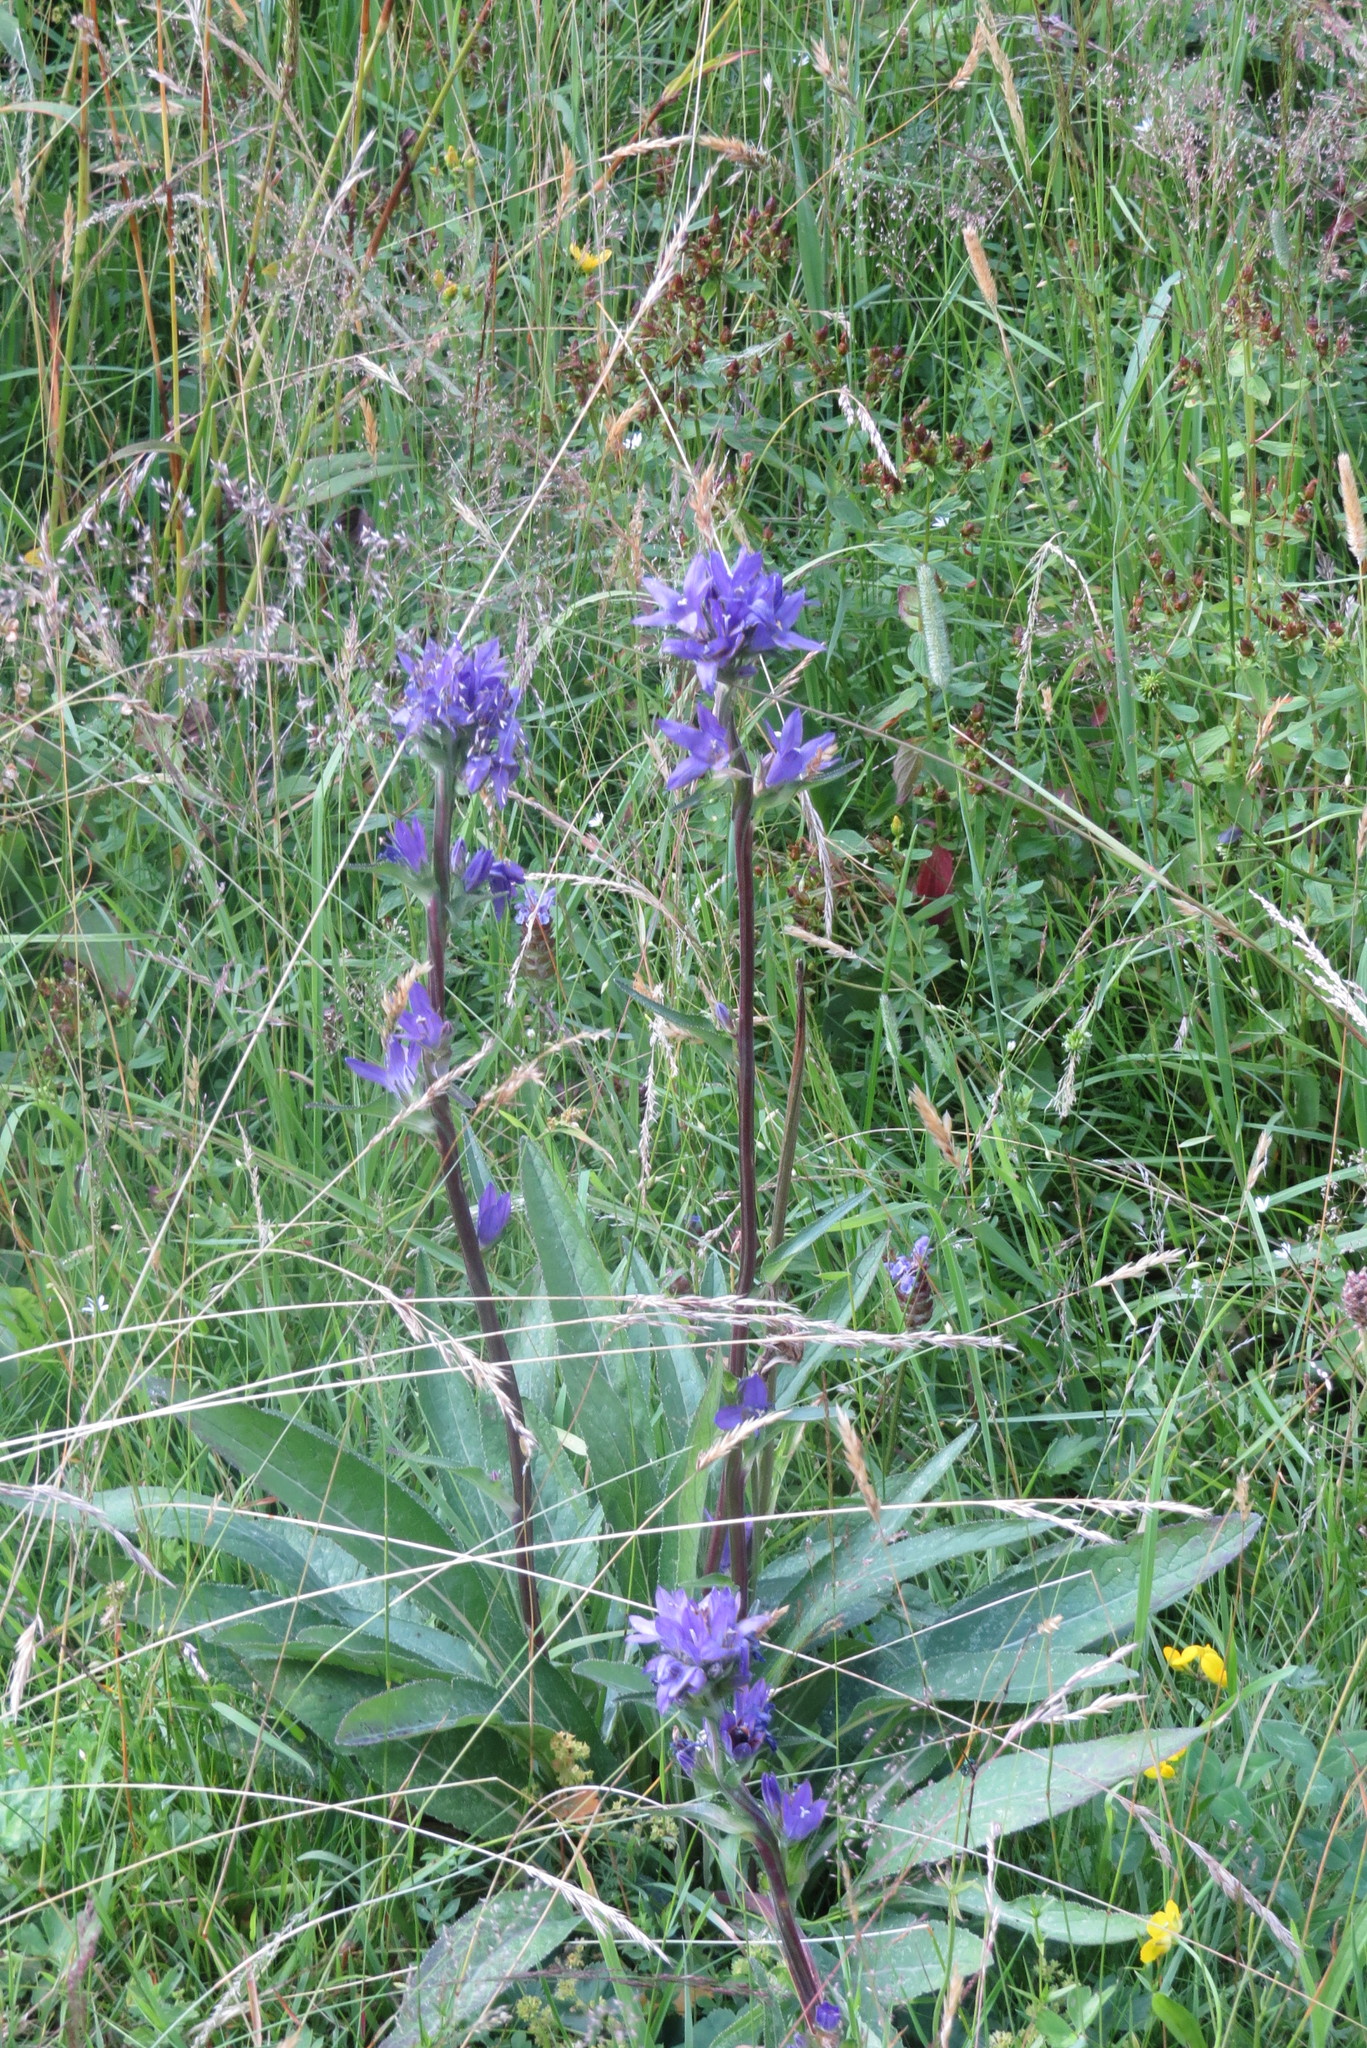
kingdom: Plantae
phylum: Tracheophyta
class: Magnoliopsida
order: Asterales
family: Campanulaceae
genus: Campanula
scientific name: Campanula glomerata
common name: Clustered bellflower
